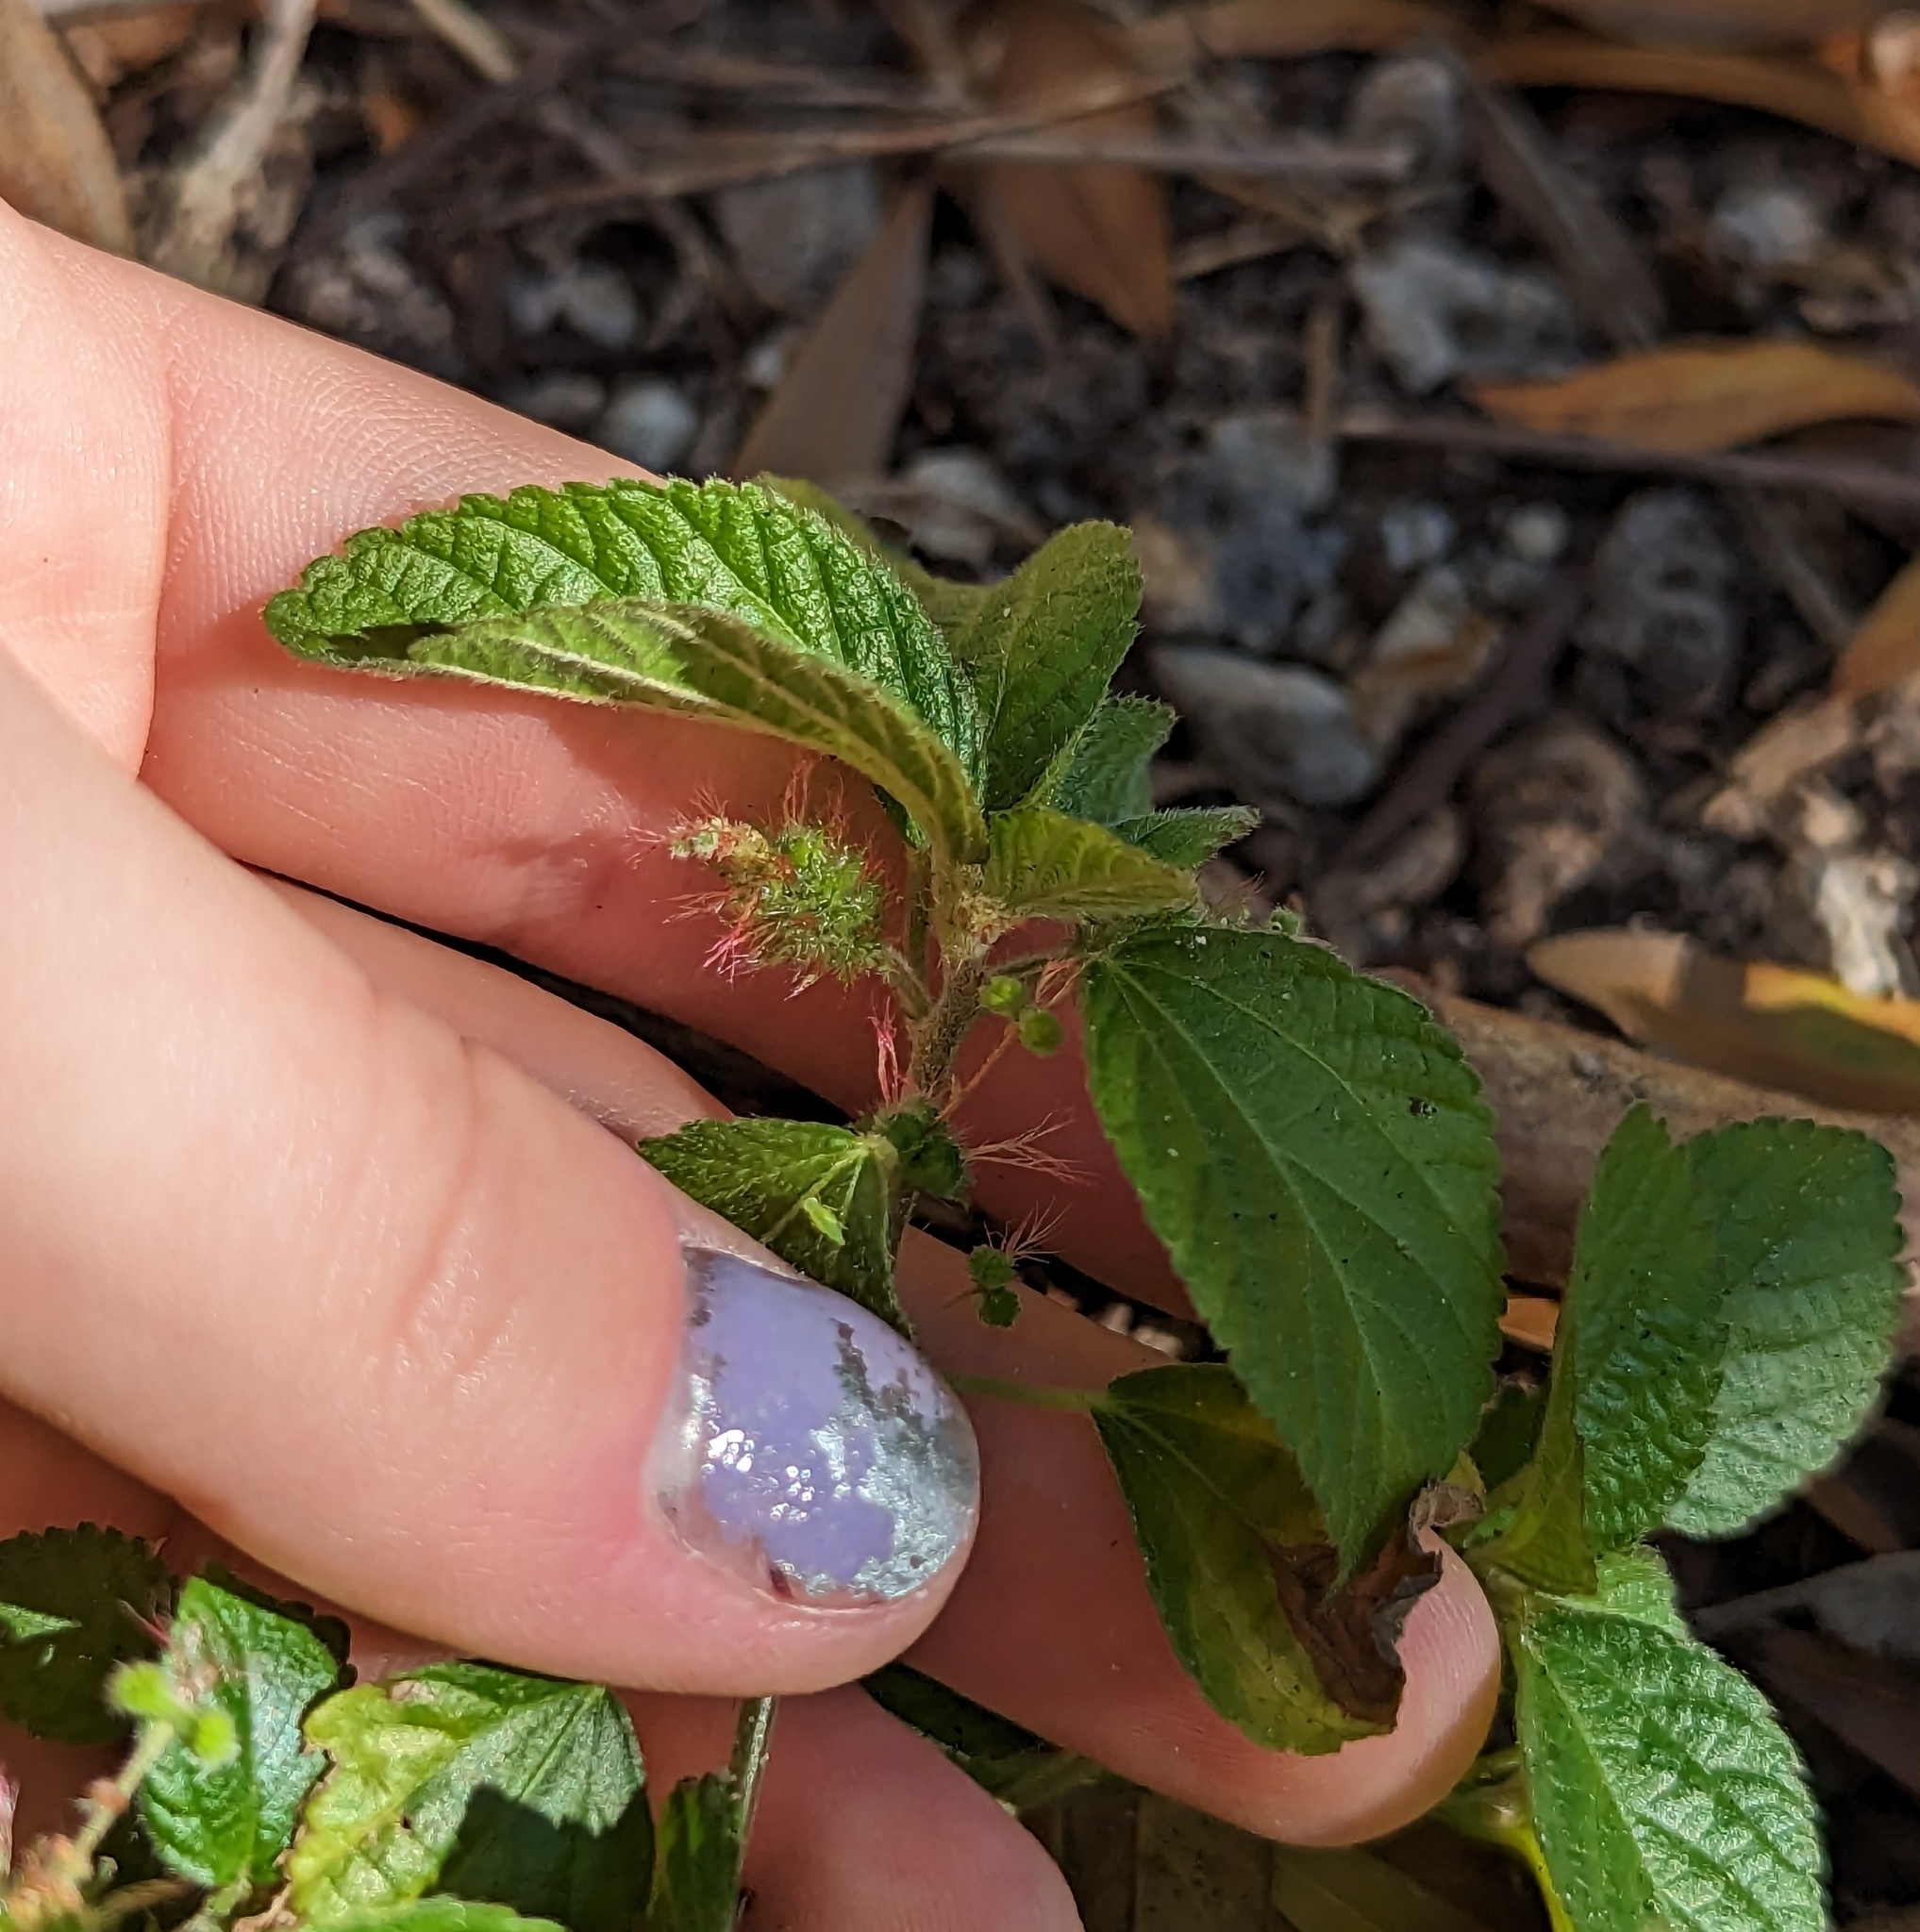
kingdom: Plantae
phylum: Tracheophyta
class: Magnoliopsida
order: Malpighiales
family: Euphorbiaceae
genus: Acalypha
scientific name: Acalypha arvensis
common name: Field copperleaf
